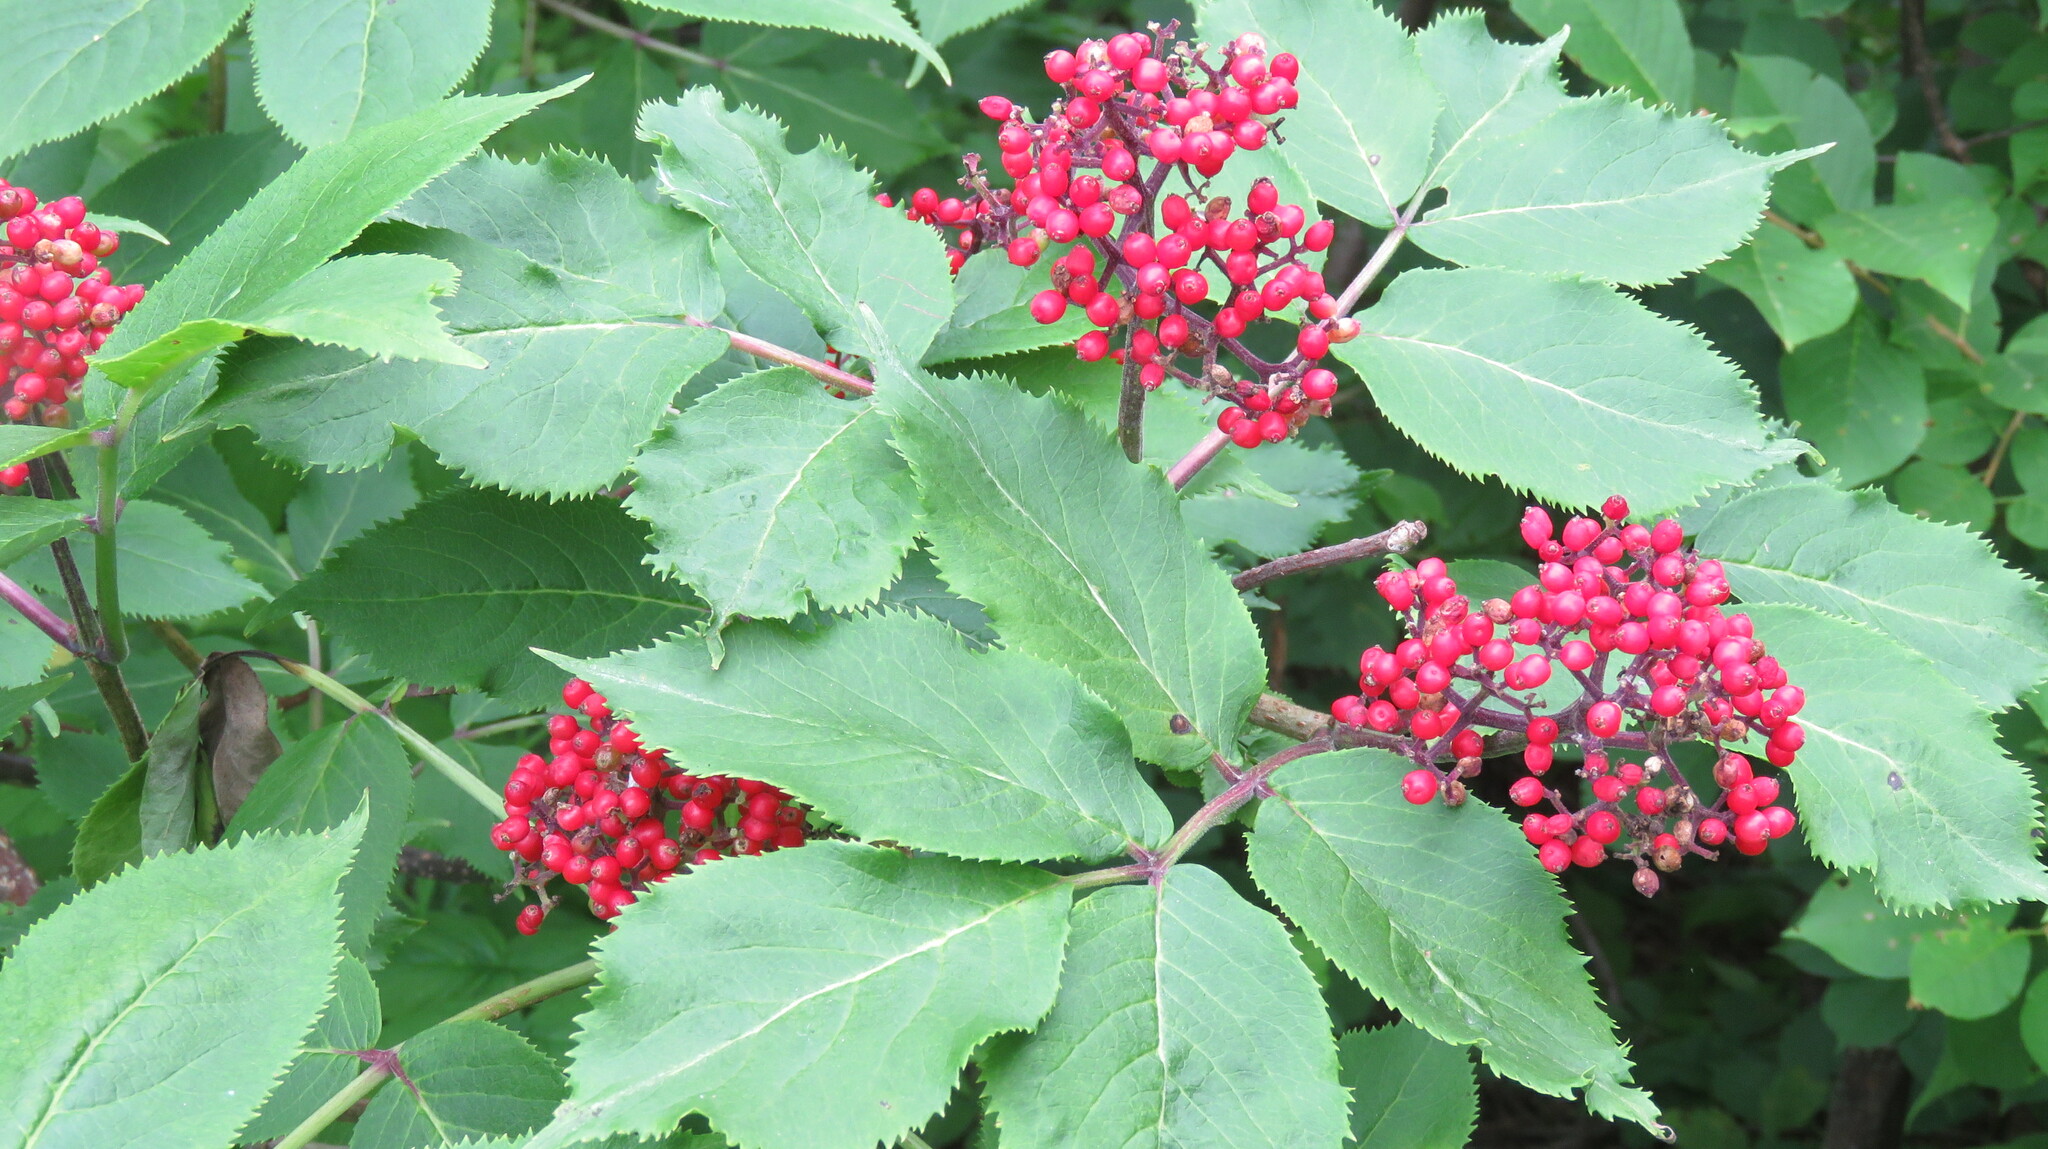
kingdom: Plantae
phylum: Tracheophyta
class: Magnoliopsida
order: Dipsacales
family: Viburnaceae
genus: Sambucus
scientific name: Sambucus racemosa
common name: Red-berried elder
